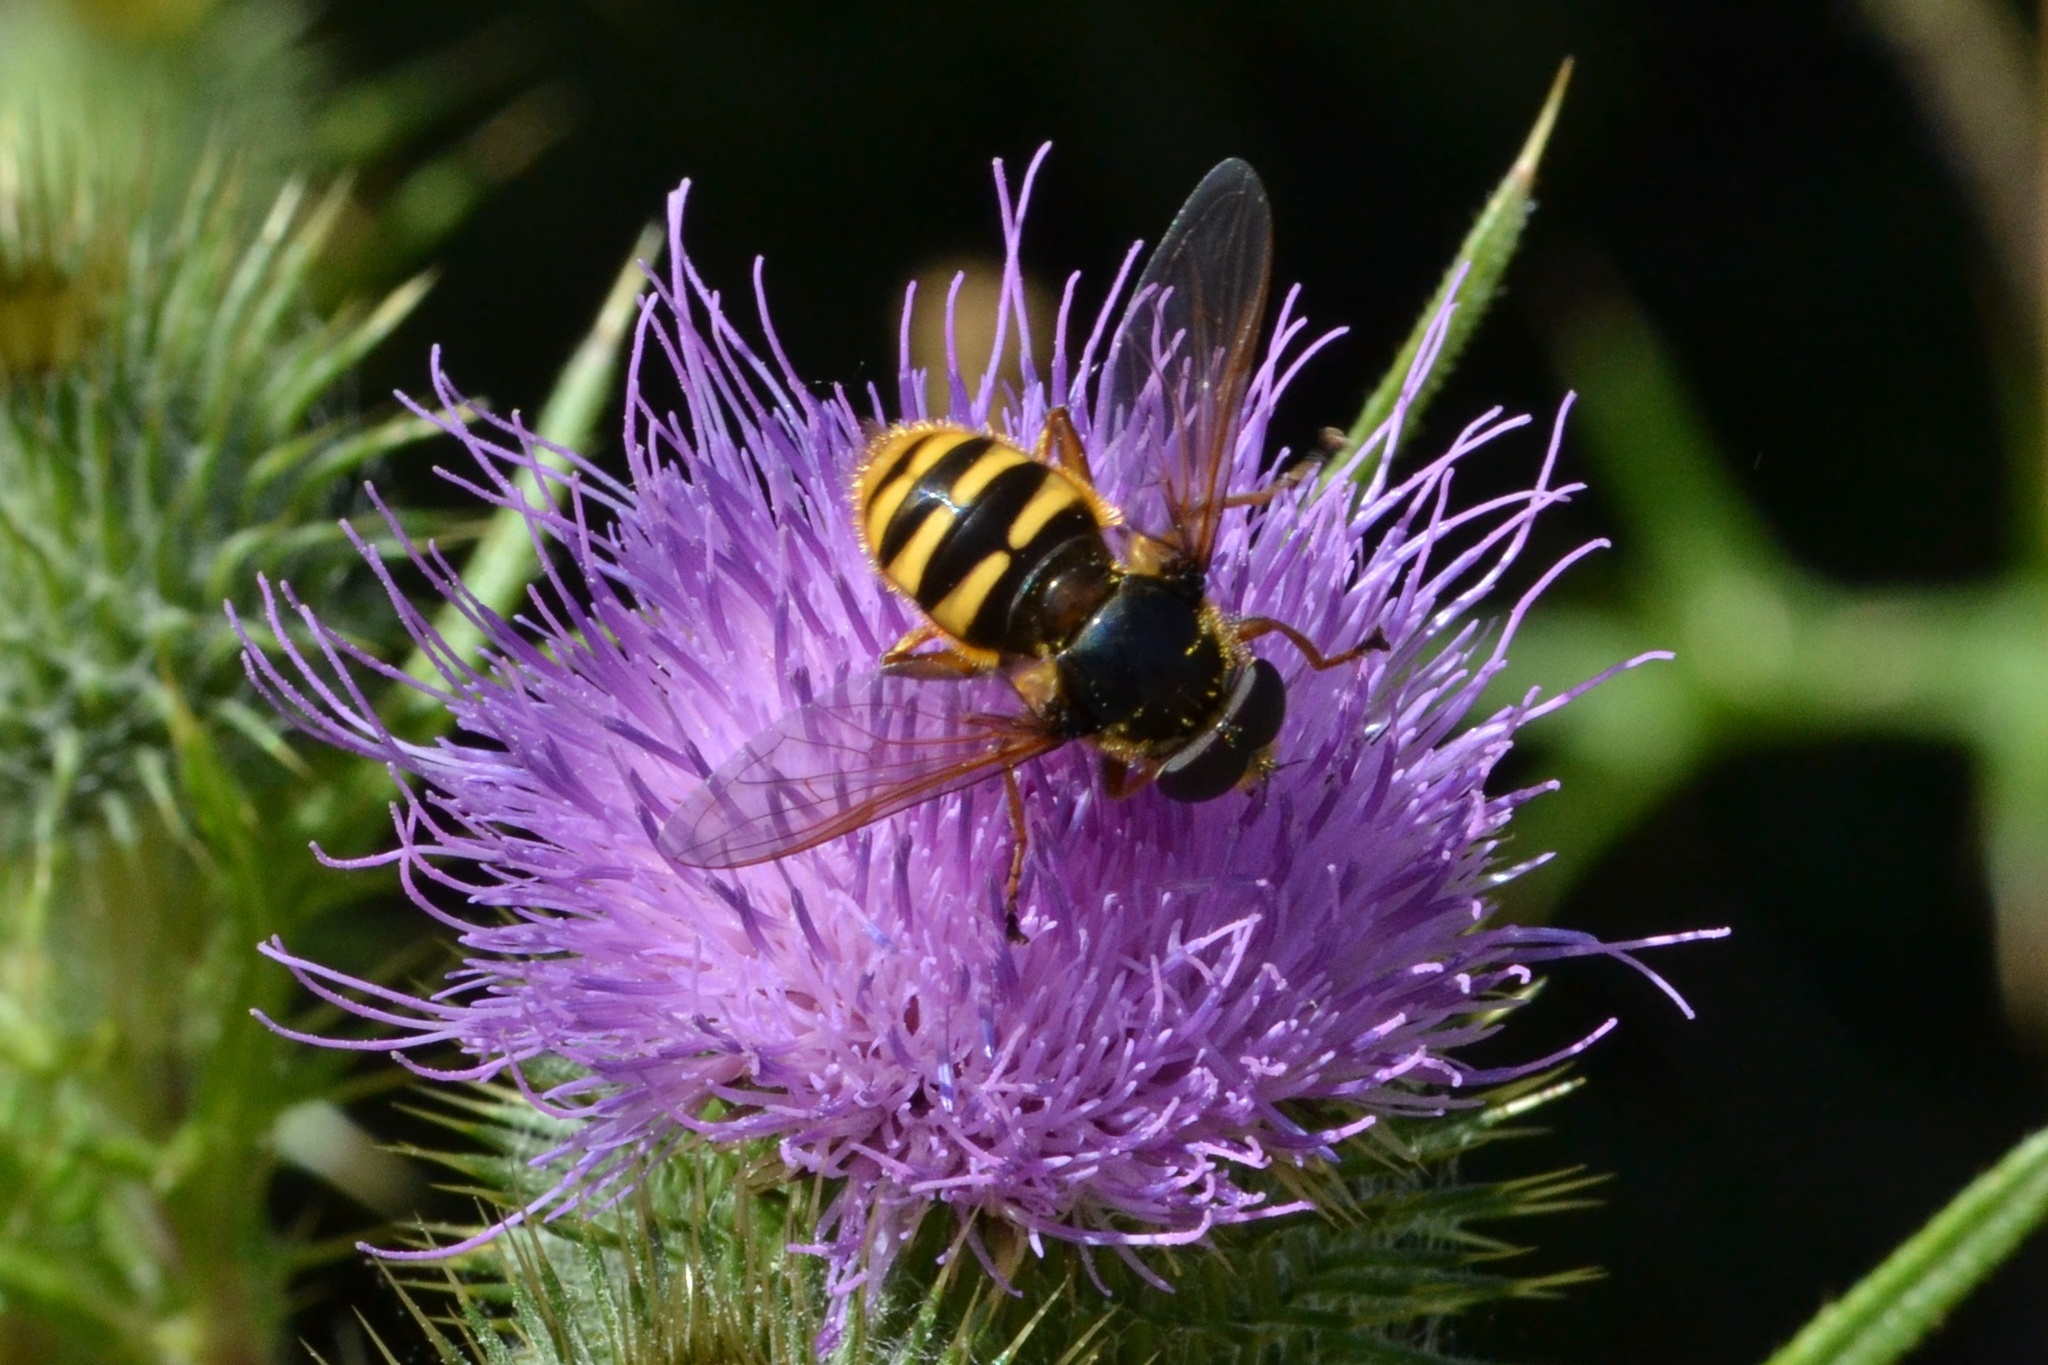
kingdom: Animalia
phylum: Arthropoda
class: Insecta
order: Diptera
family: Syrphidae
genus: Sericomyia
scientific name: Sericomyia silentis
